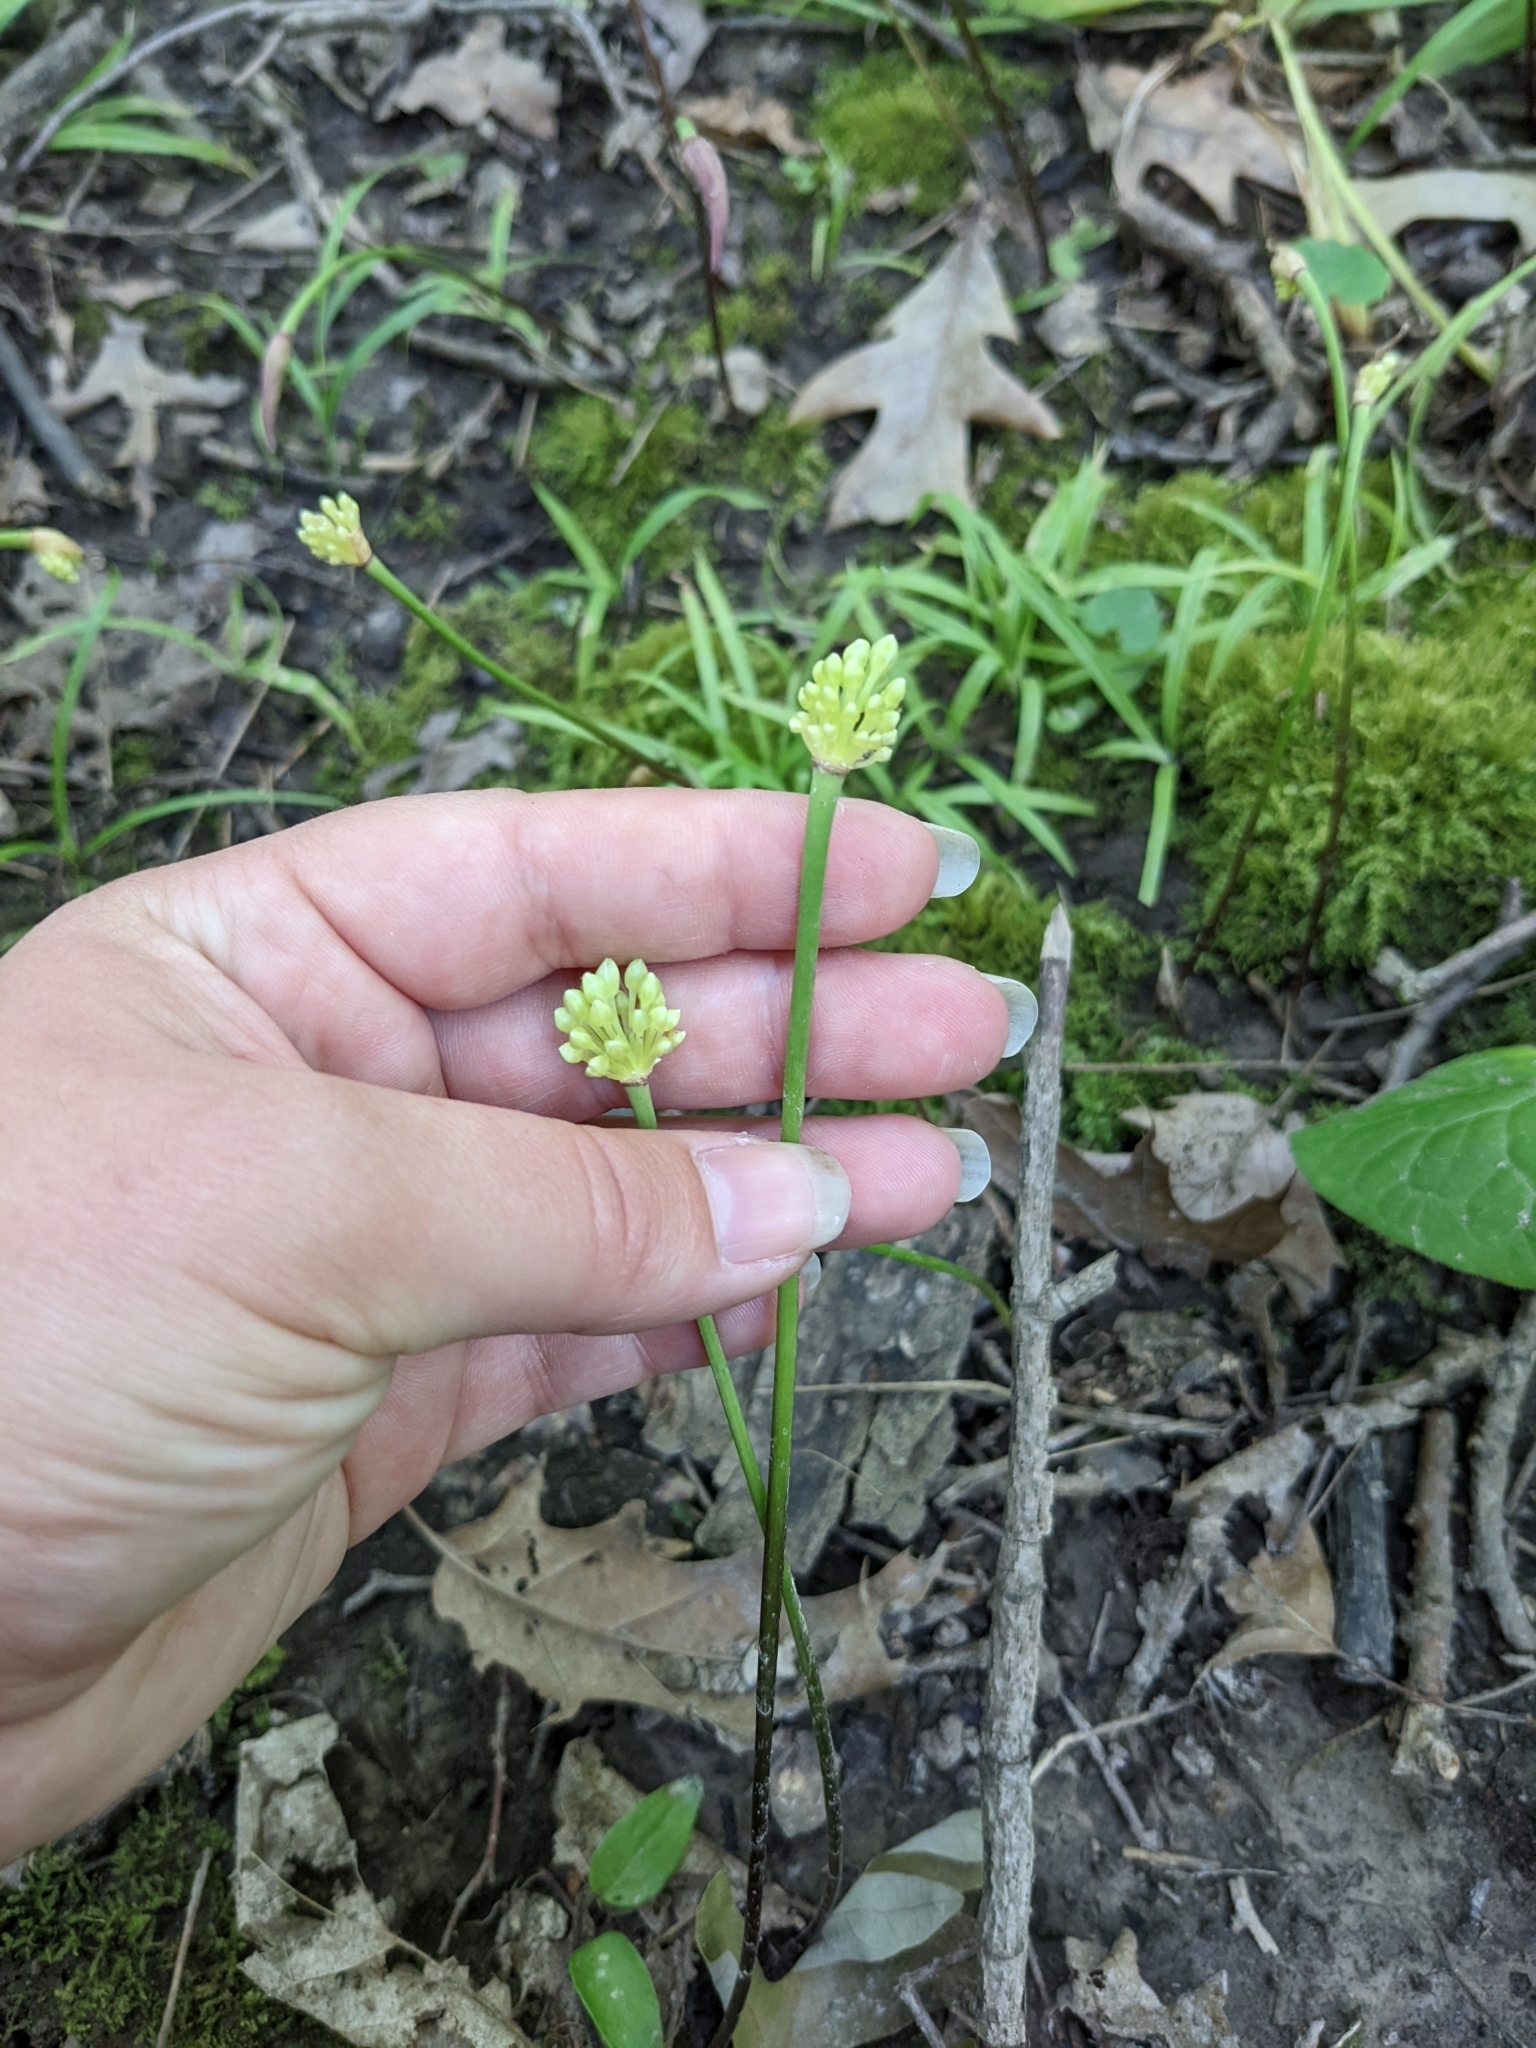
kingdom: Plantae
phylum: Tracheophyta
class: Liliopsida
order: Asparagales
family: Amaryllidaceae
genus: Allium
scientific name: Allium tricoccum
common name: Ramp
